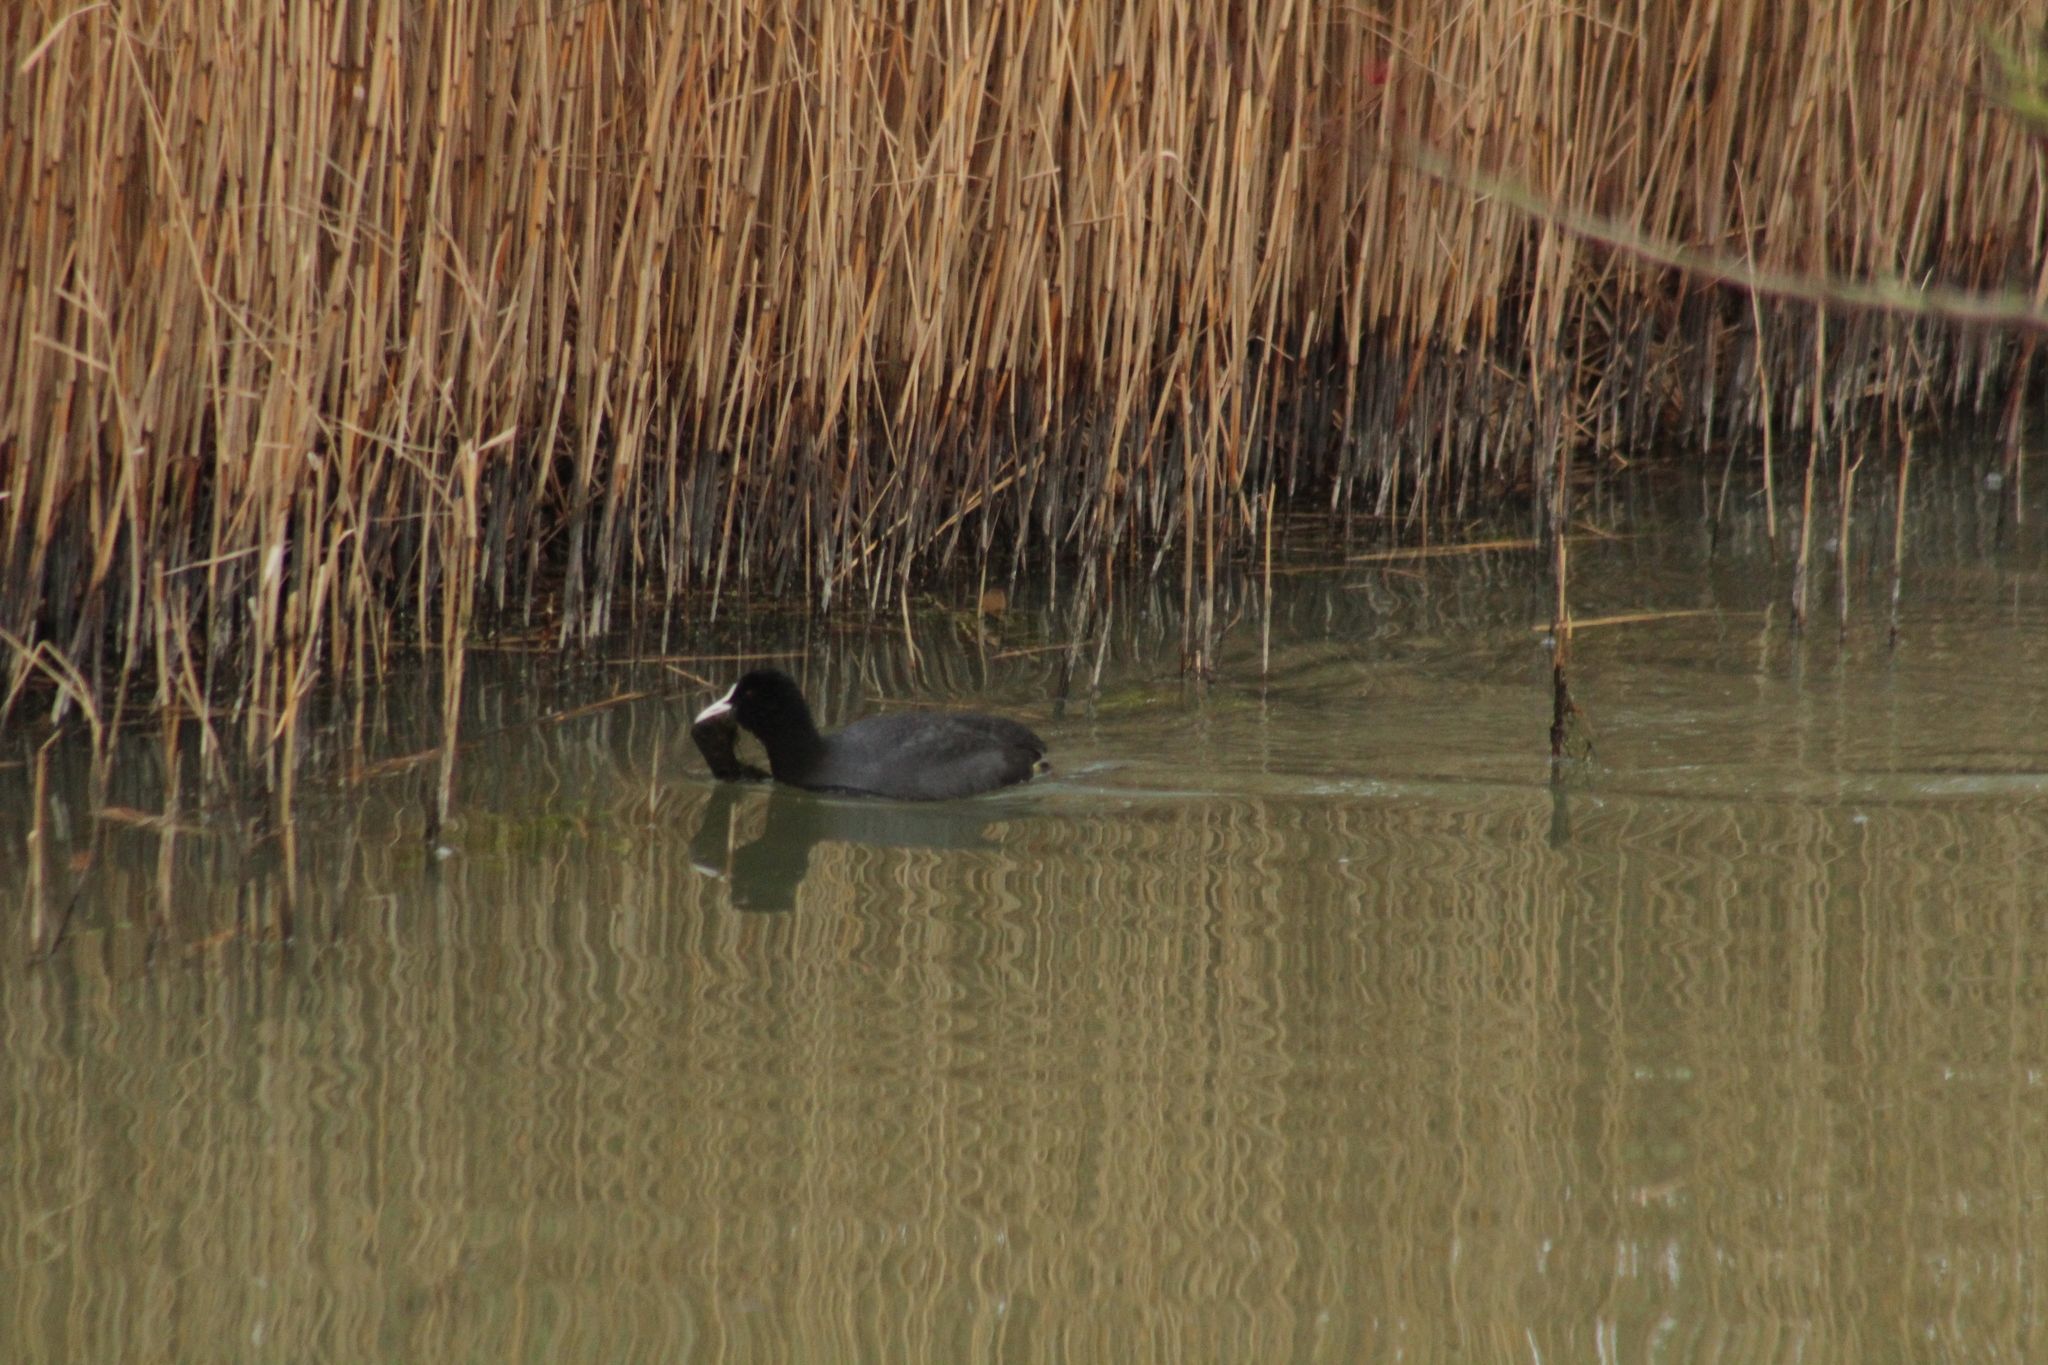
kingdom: Animalia
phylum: Chordata
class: Aves
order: Gruiformes
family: Rallidae
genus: Fulica
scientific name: Fulica atra
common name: Eurasian coot
